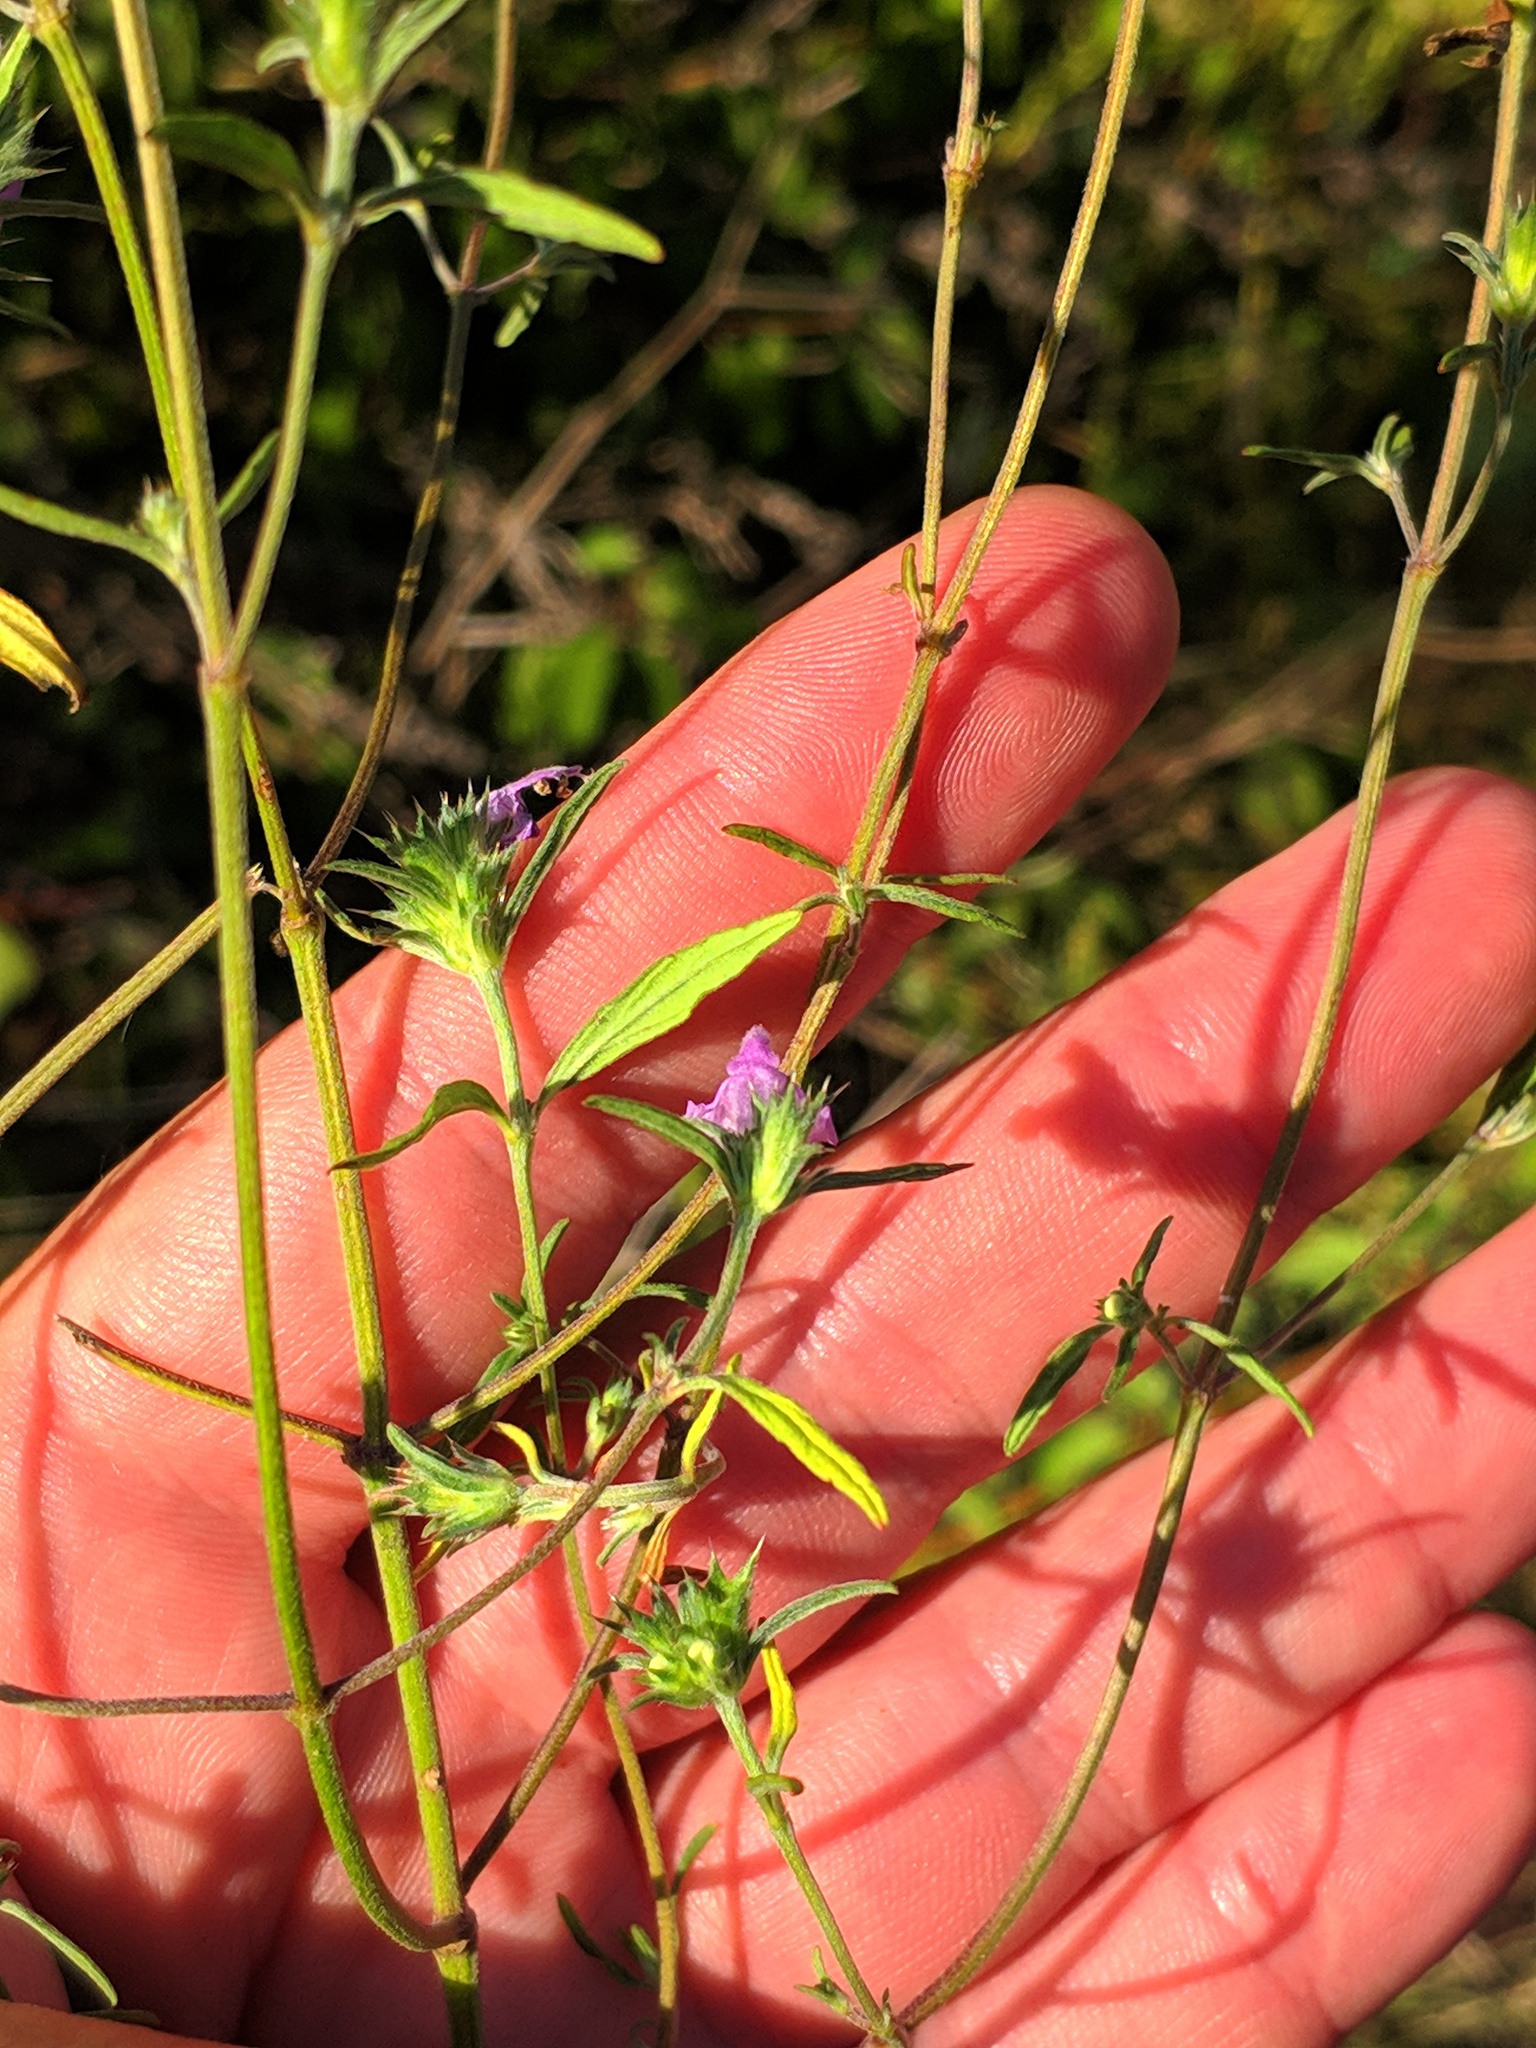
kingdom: Plantae
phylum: Tracheophyta
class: Magnoliopsida
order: Lamiales
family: Lamiaceae
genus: Galeopsis
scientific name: Galeopsis angustifolia
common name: Red hemp-nettle
